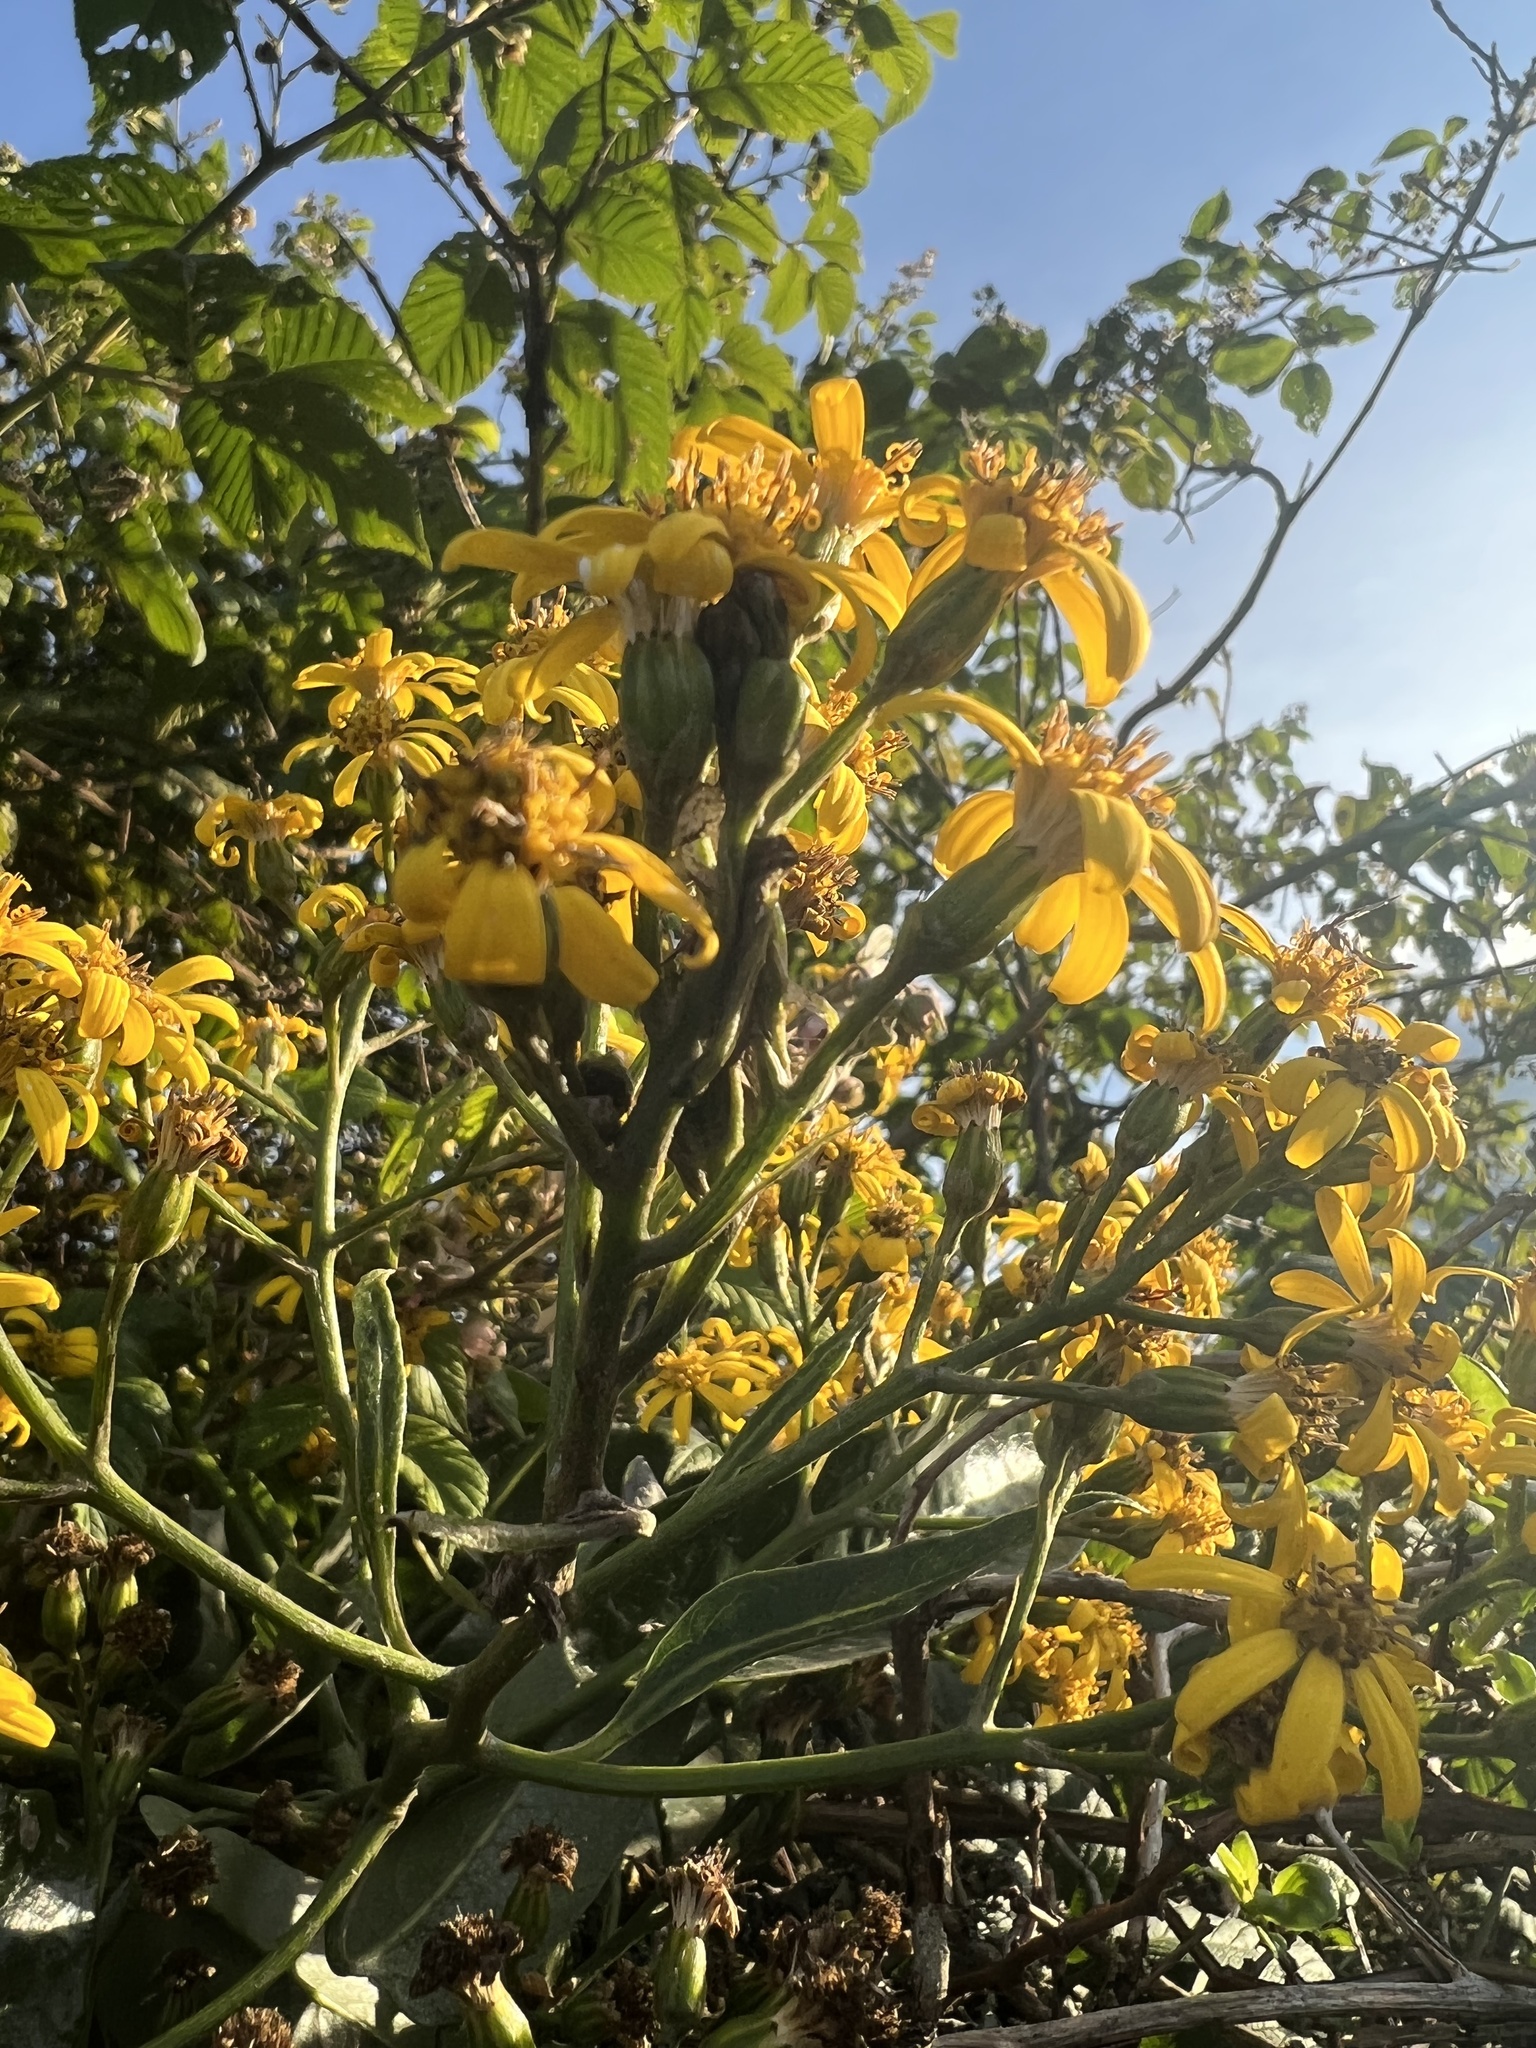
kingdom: Plantae
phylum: Tracheophyta
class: Magnoliopsida
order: Asterales
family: Asteraceae
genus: Dendrophorbium
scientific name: Dendrophorbium americanum
